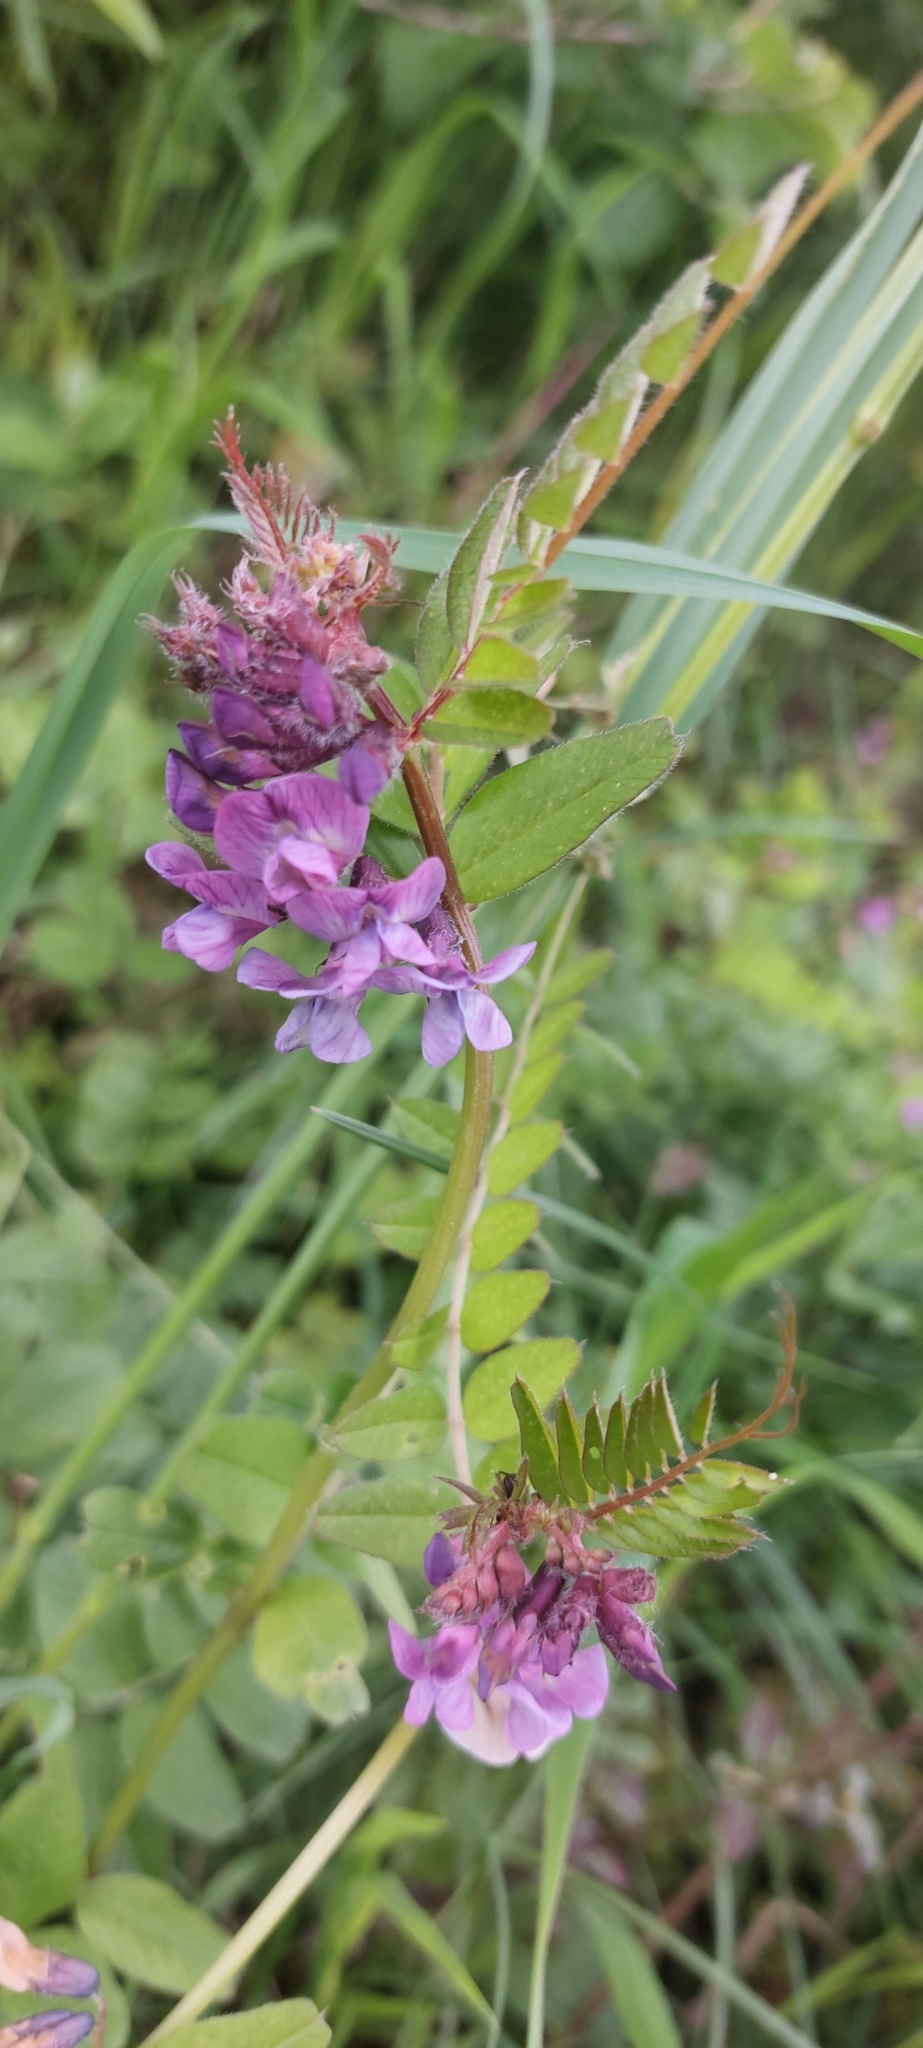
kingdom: Plantae
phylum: Tracheophyta
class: Magnoliopsida
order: Fabales
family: Fabaceae
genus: Vicia
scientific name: Vicia sepium
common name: Bush vetch
